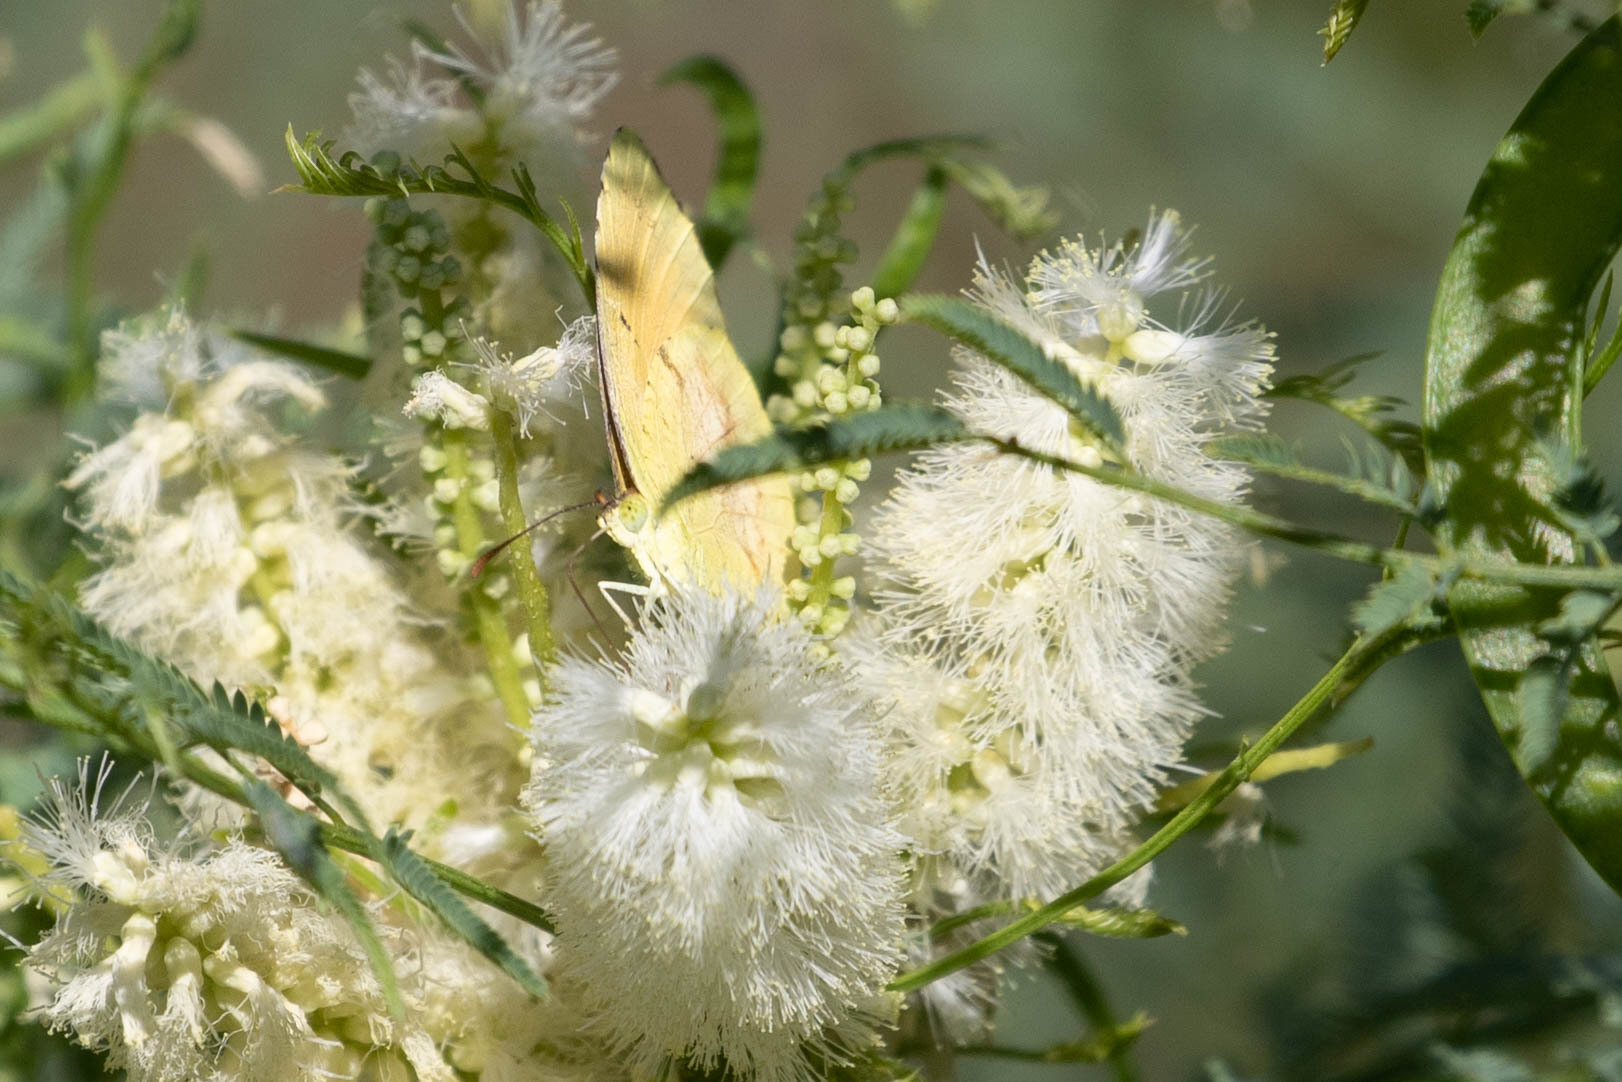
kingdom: Animalia
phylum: Arthropoda
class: Insecta
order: Lepidoptera
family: Pieridae
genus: Abaeis
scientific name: Abaeis nicippe
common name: Sleepy orange
